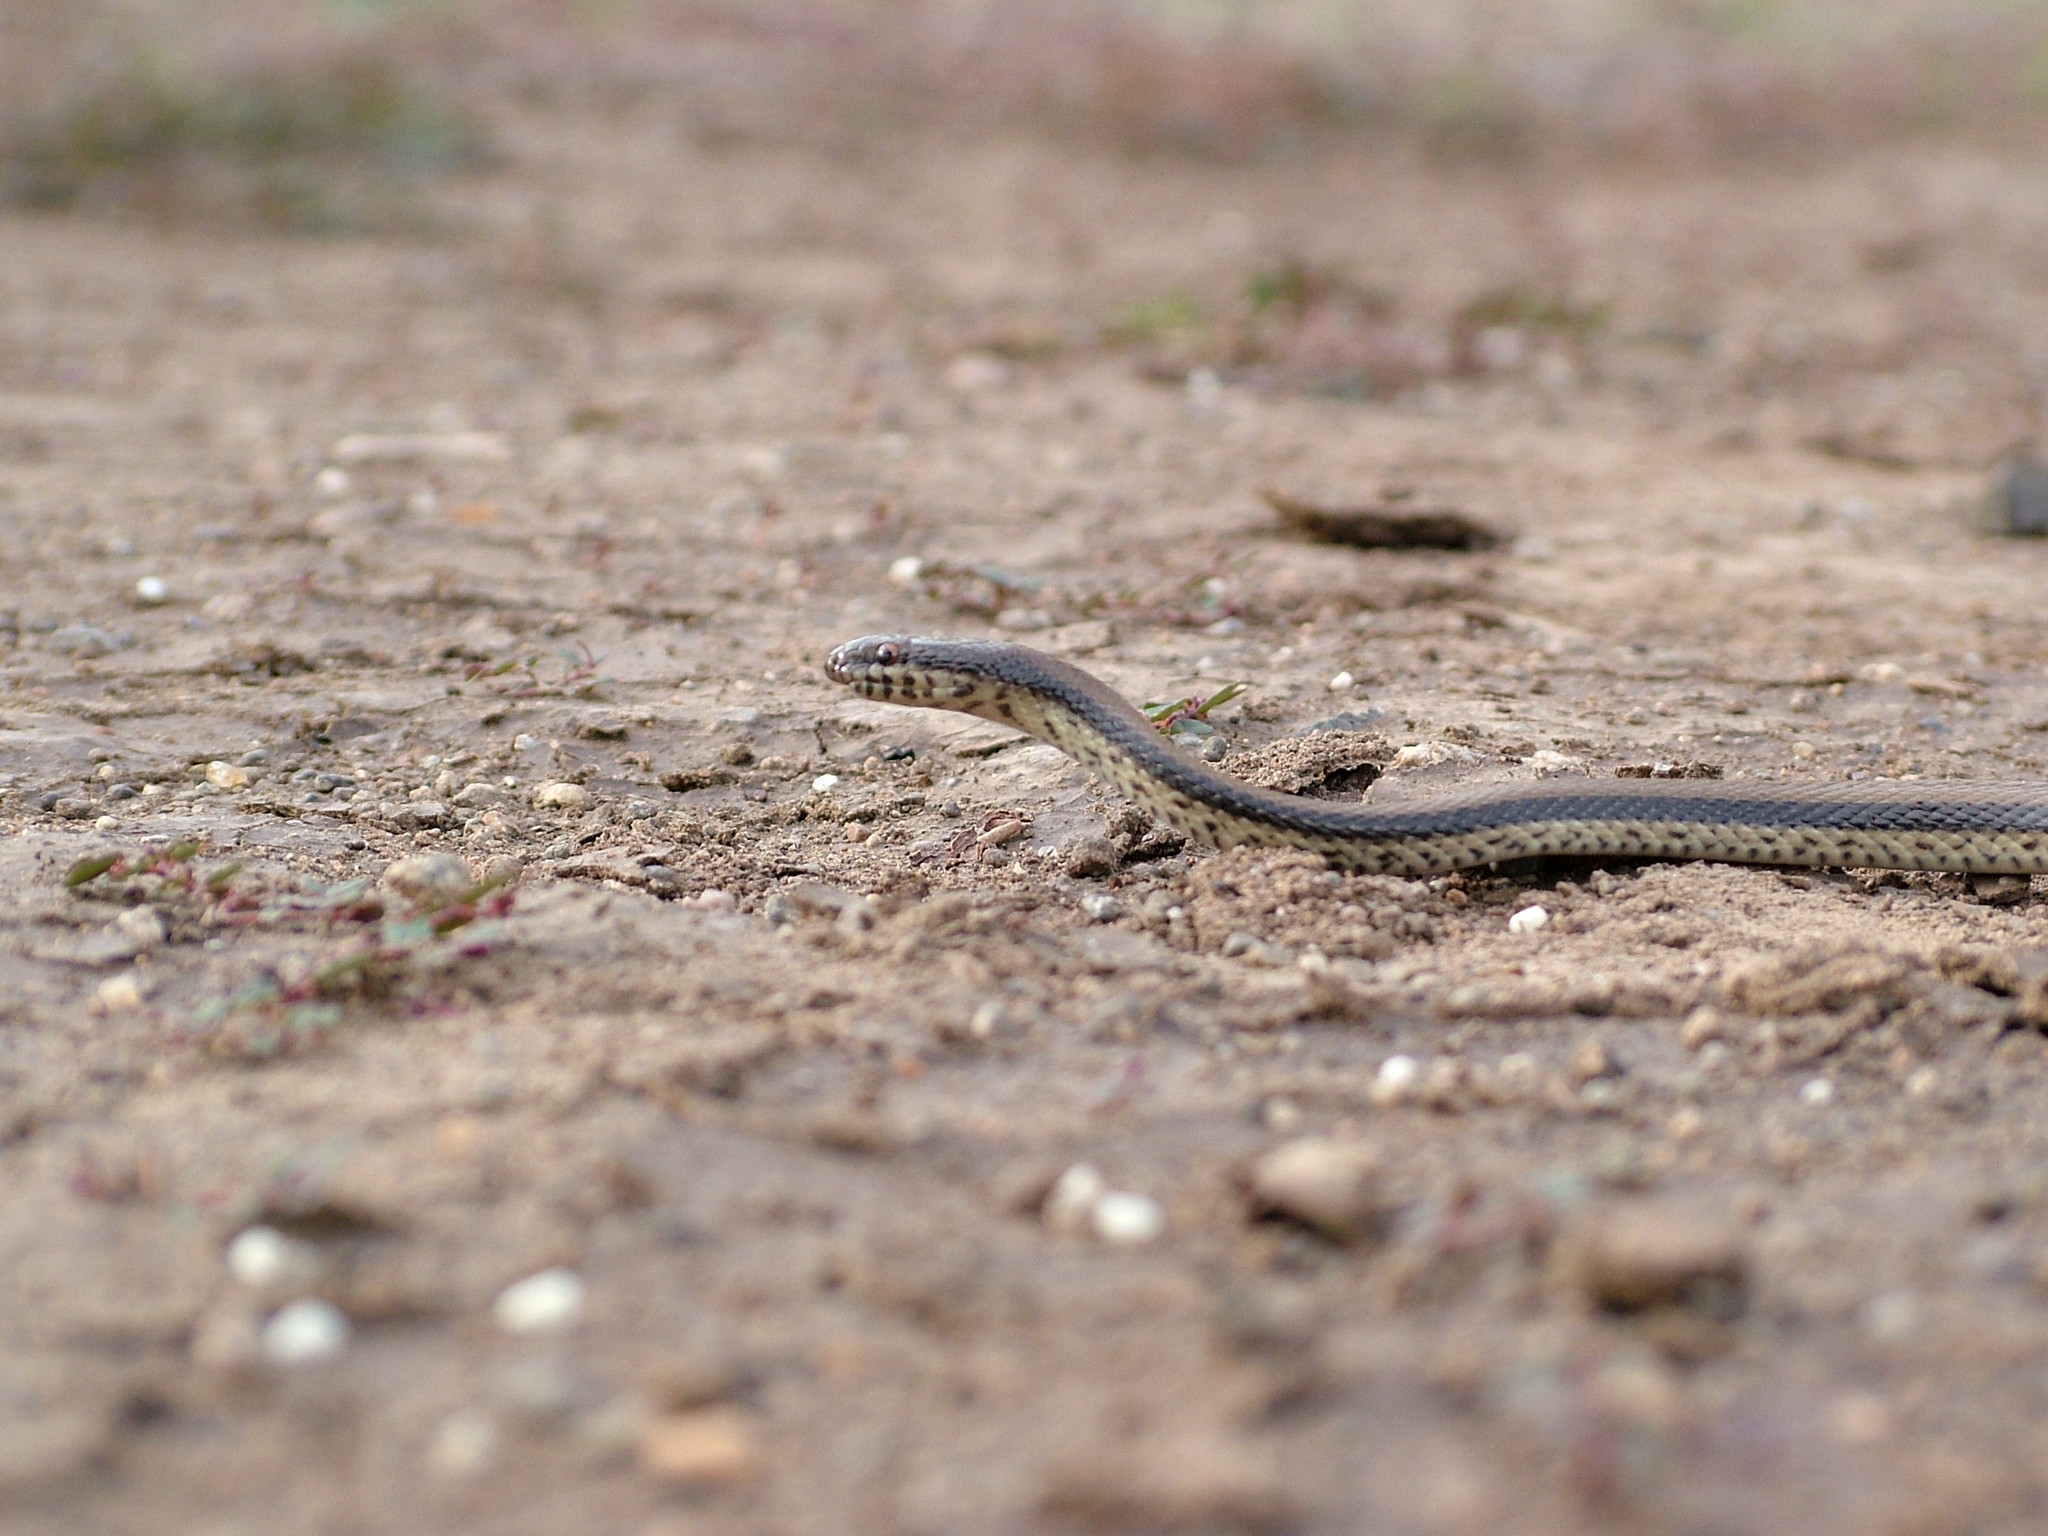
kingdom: Animalia
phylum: Chordata
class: Squamata
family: Colubridae
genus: Wallaceophis
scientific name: Wallaceophis gujaratensis
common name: Wallace’s racer
